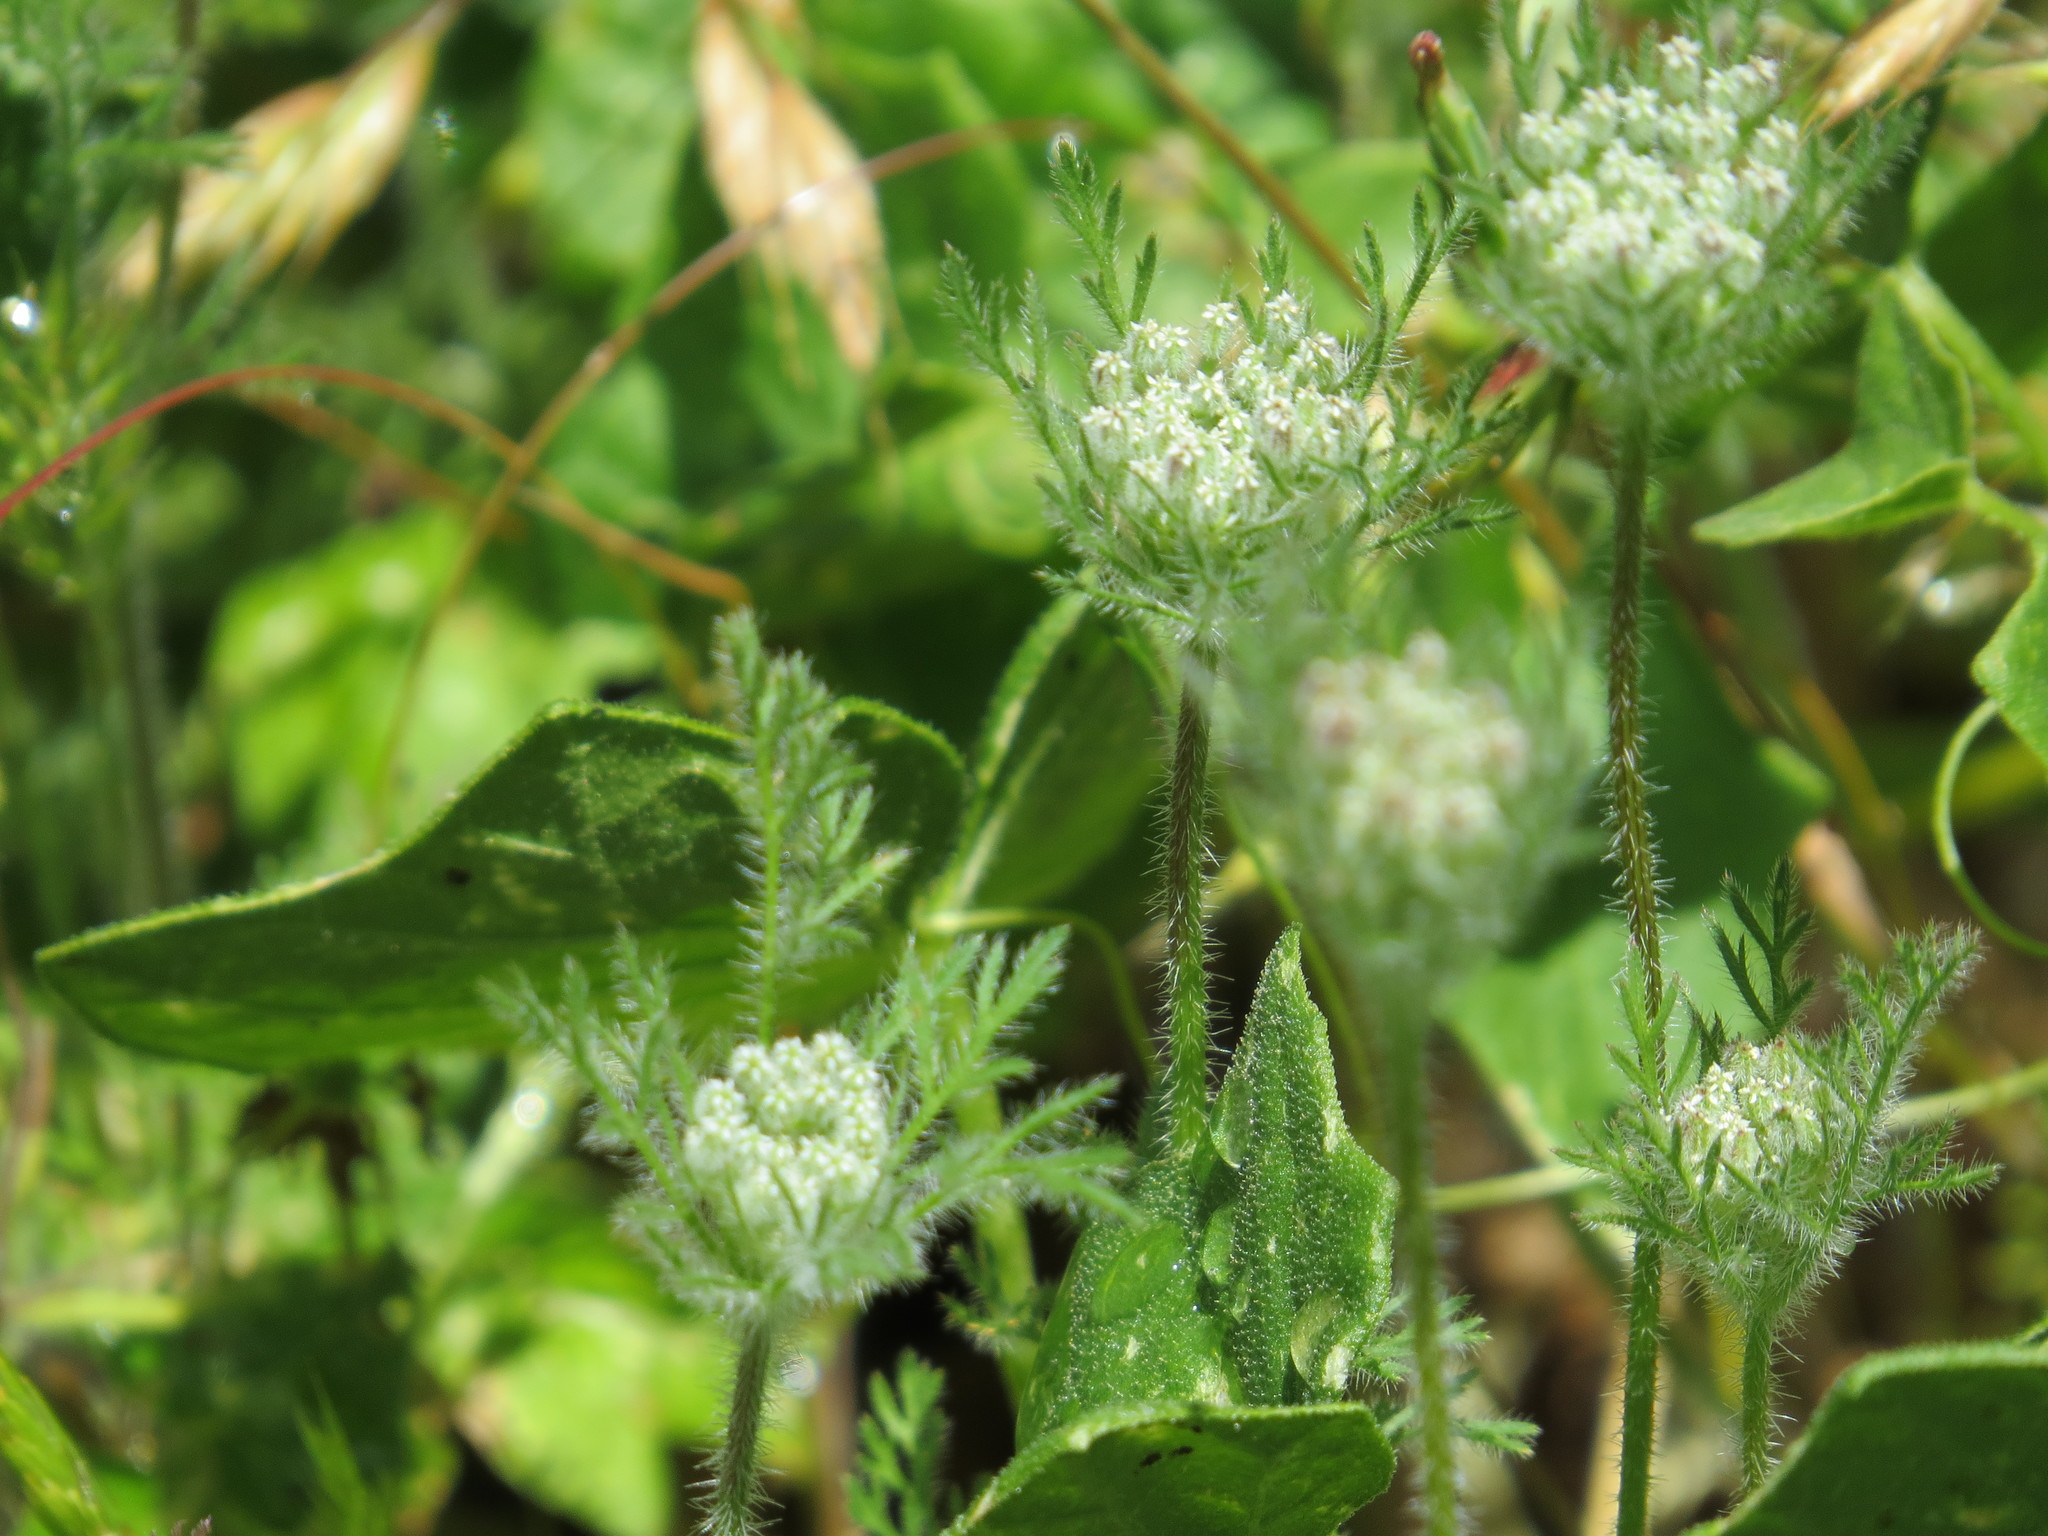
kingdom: Plantae
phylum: Tracheophyta
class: Magnoliopsida
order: Apiales
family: Apiaceae
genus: Daucus
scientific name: Daucus pusillus
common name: Southwest wild carrot
